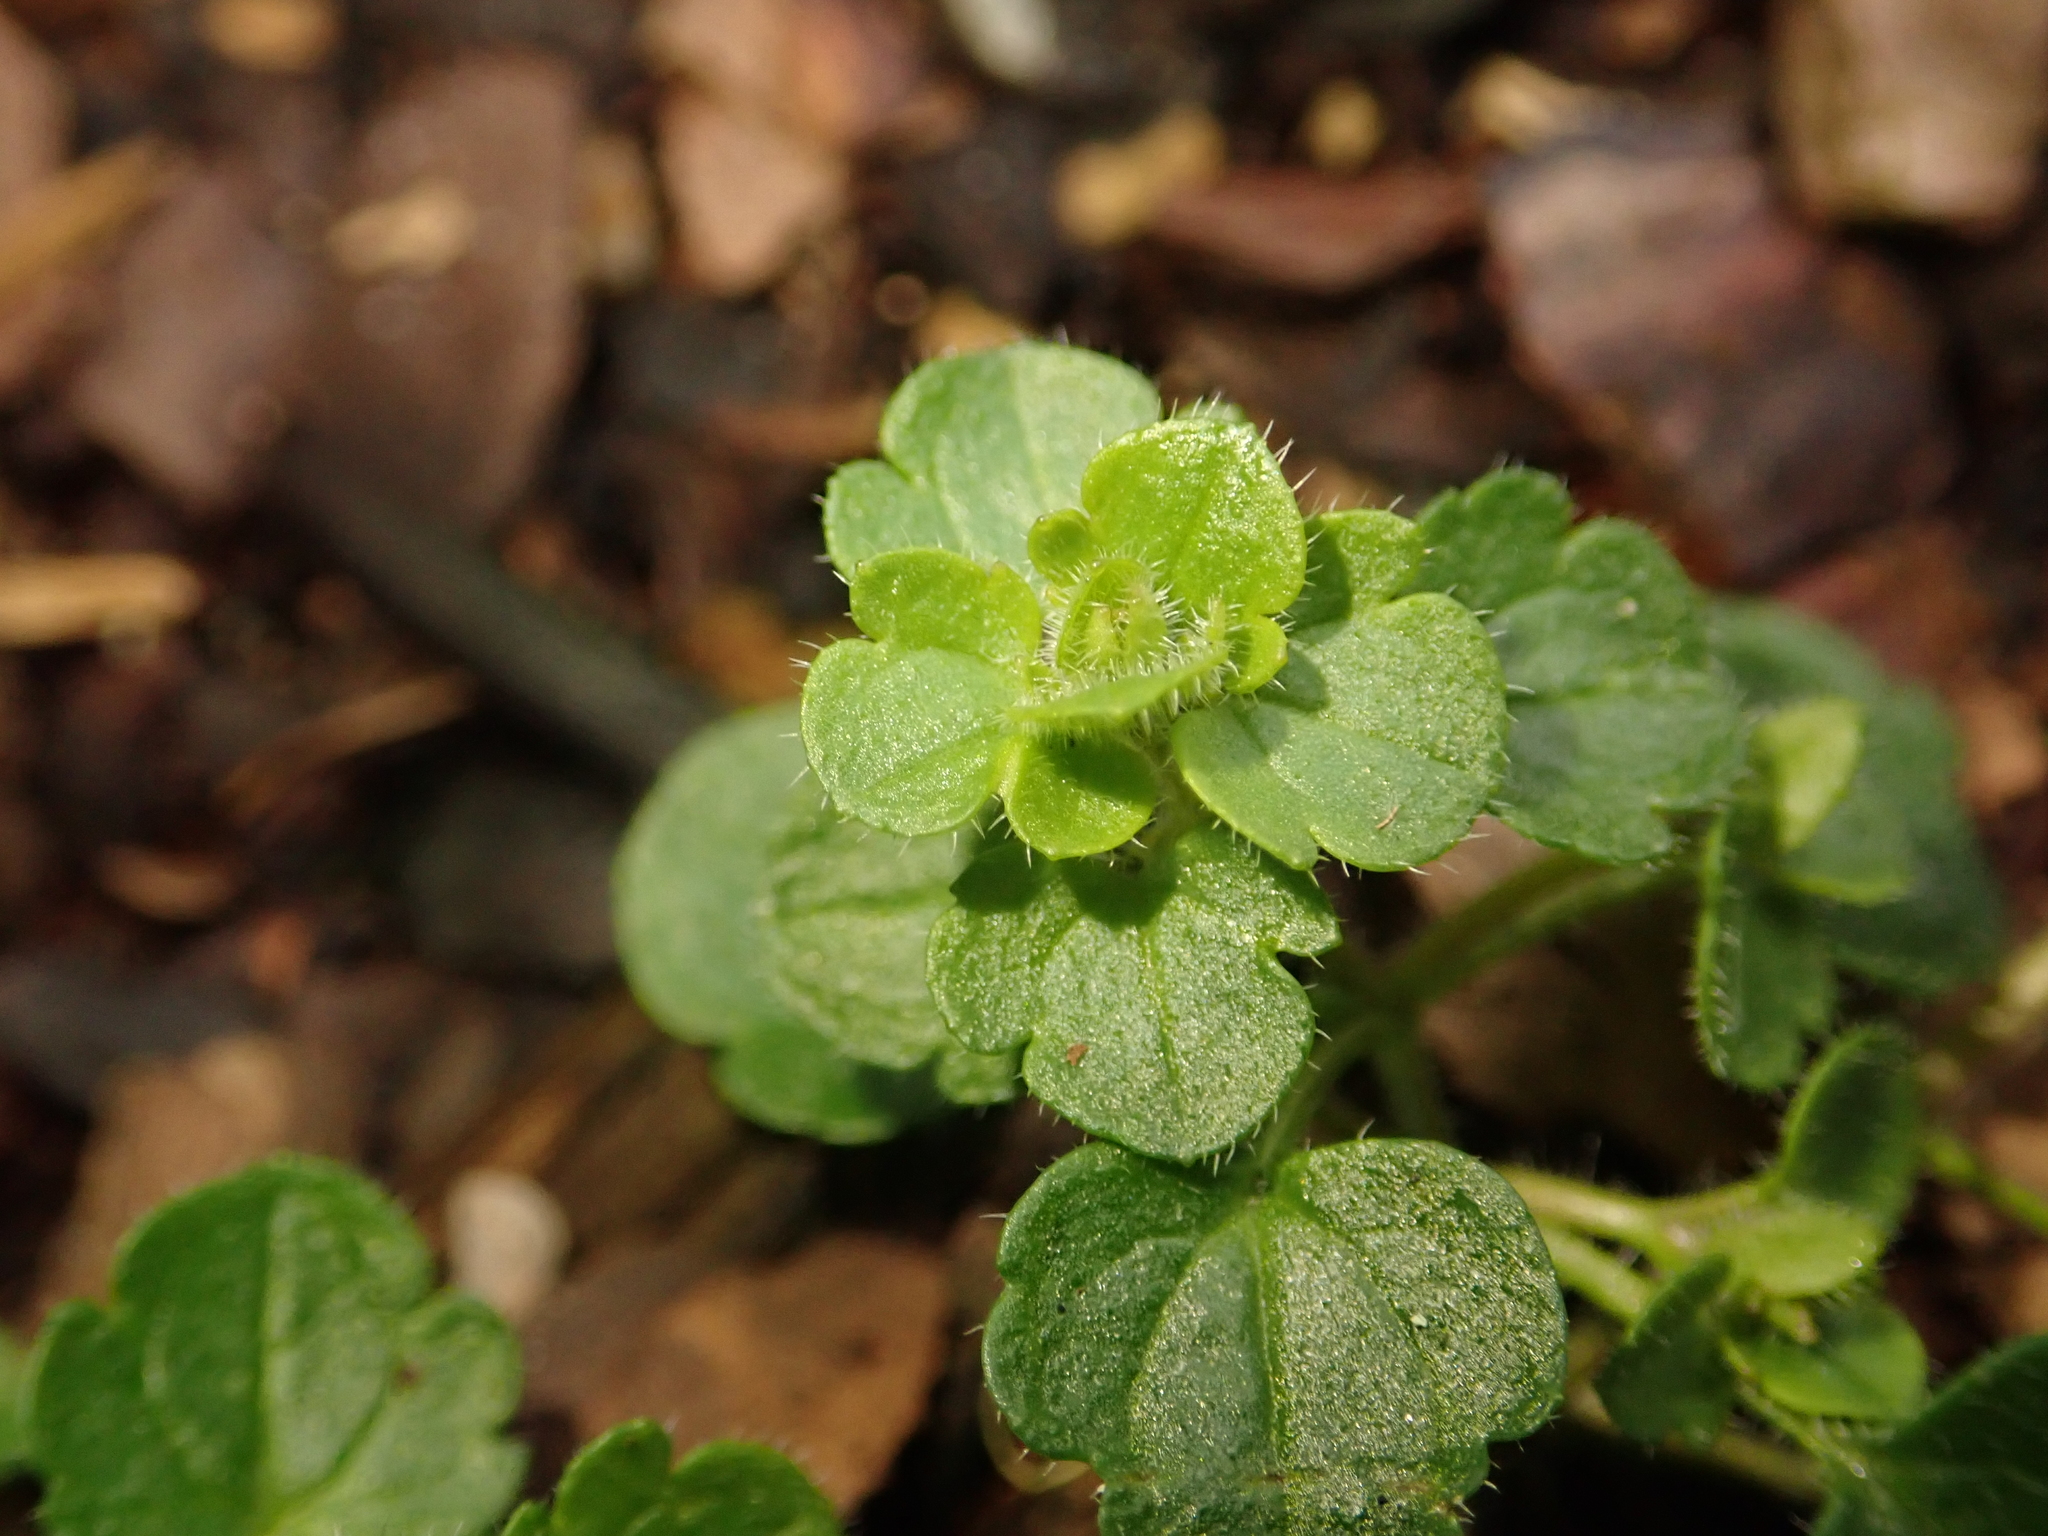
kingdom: Plantae
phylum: Tracheophyta
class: Magnoliopsida
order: Lamiales
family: Plantaginaceae
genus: Veronica
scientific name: Veronica hederifolia
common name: Ivy-leaved speedwell
